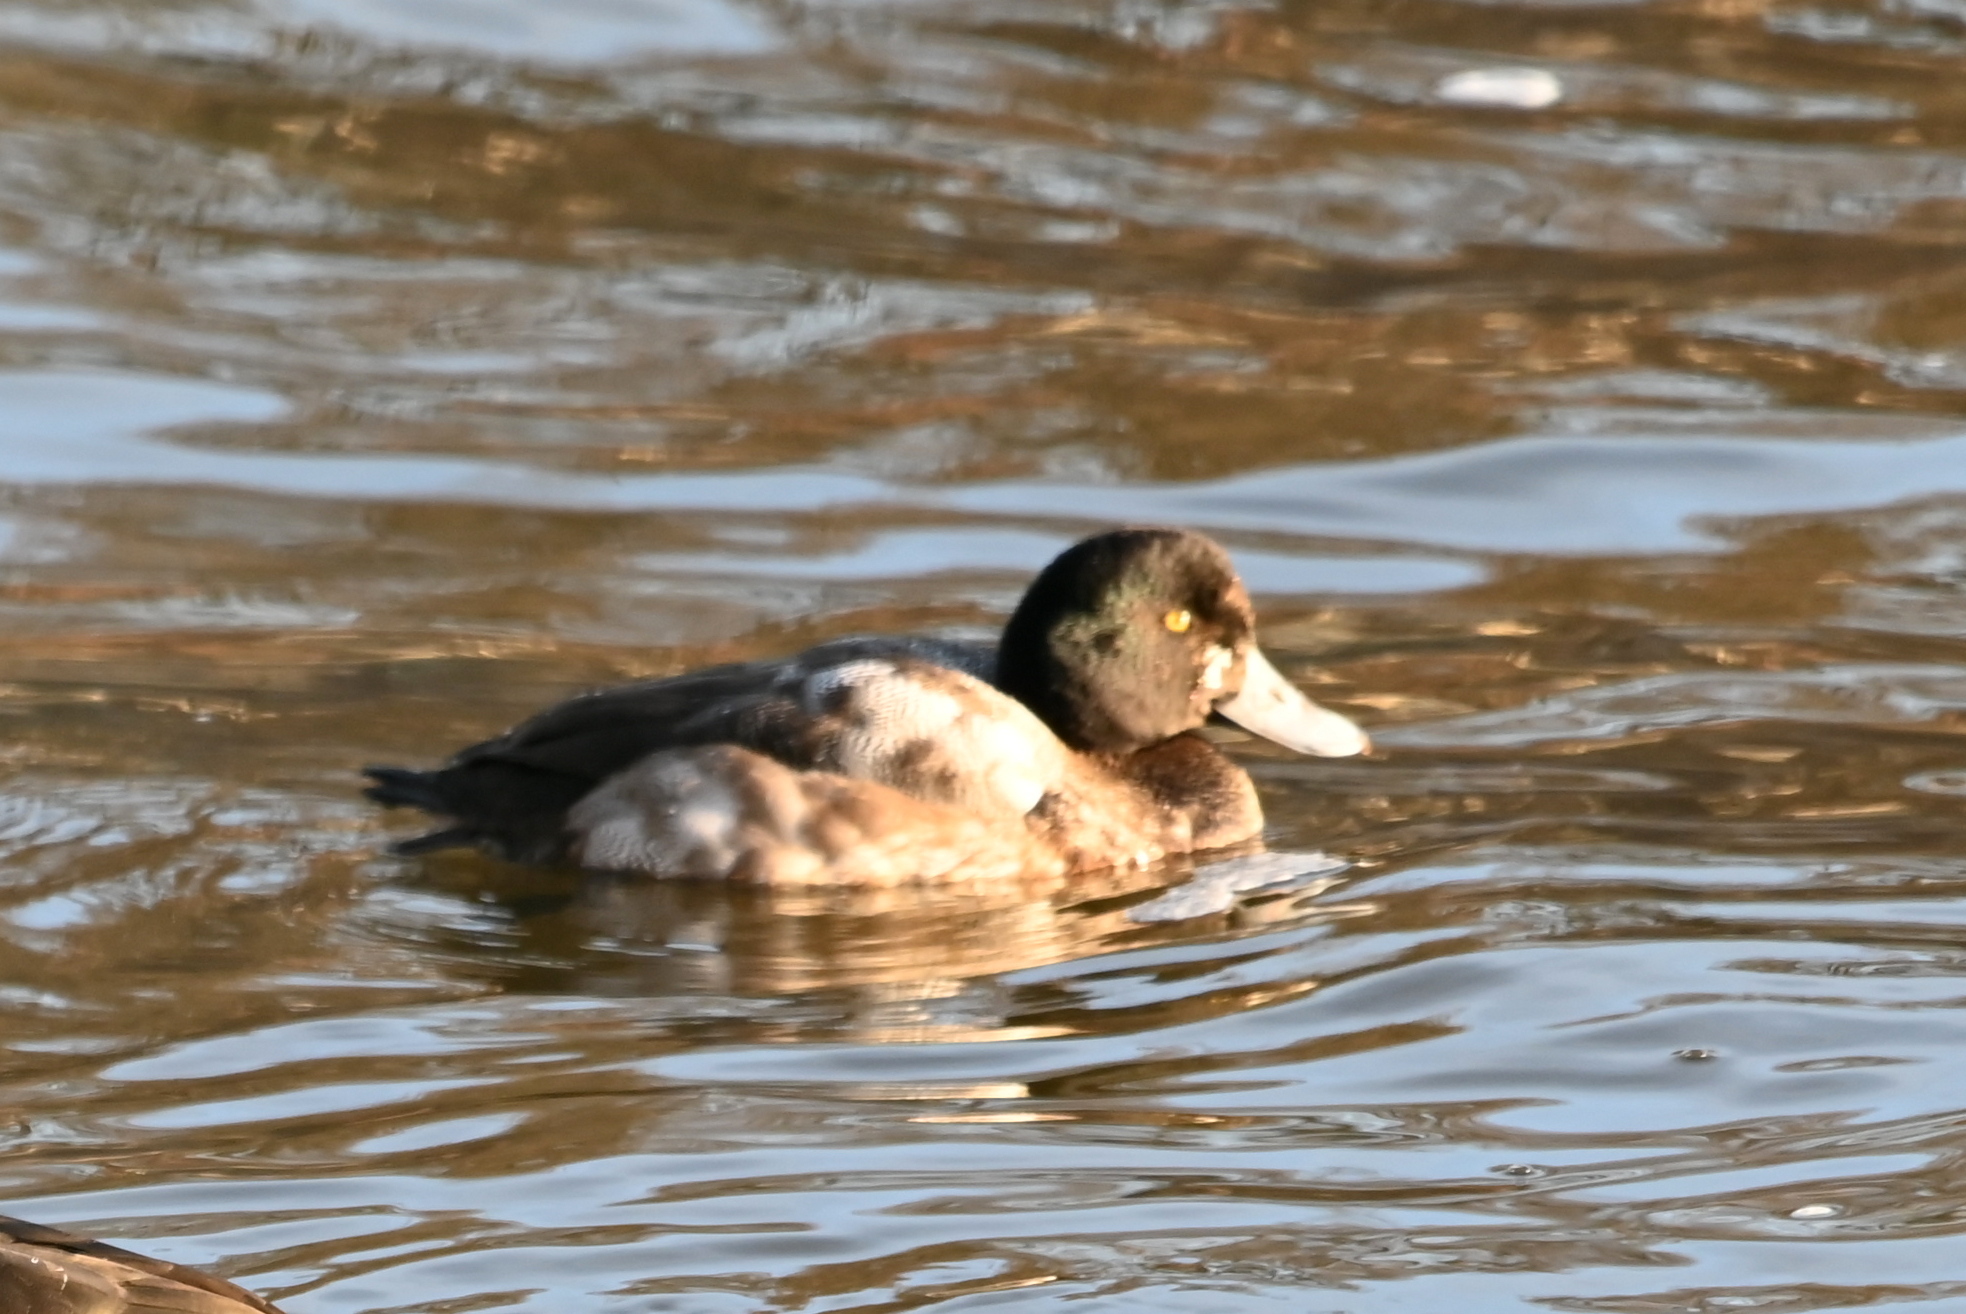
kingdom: Animalia
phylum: Chordata
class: Aves
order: Anseriformes
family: Anatidae
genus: Aythya
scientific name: Aythya marila
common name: Greater scaup
